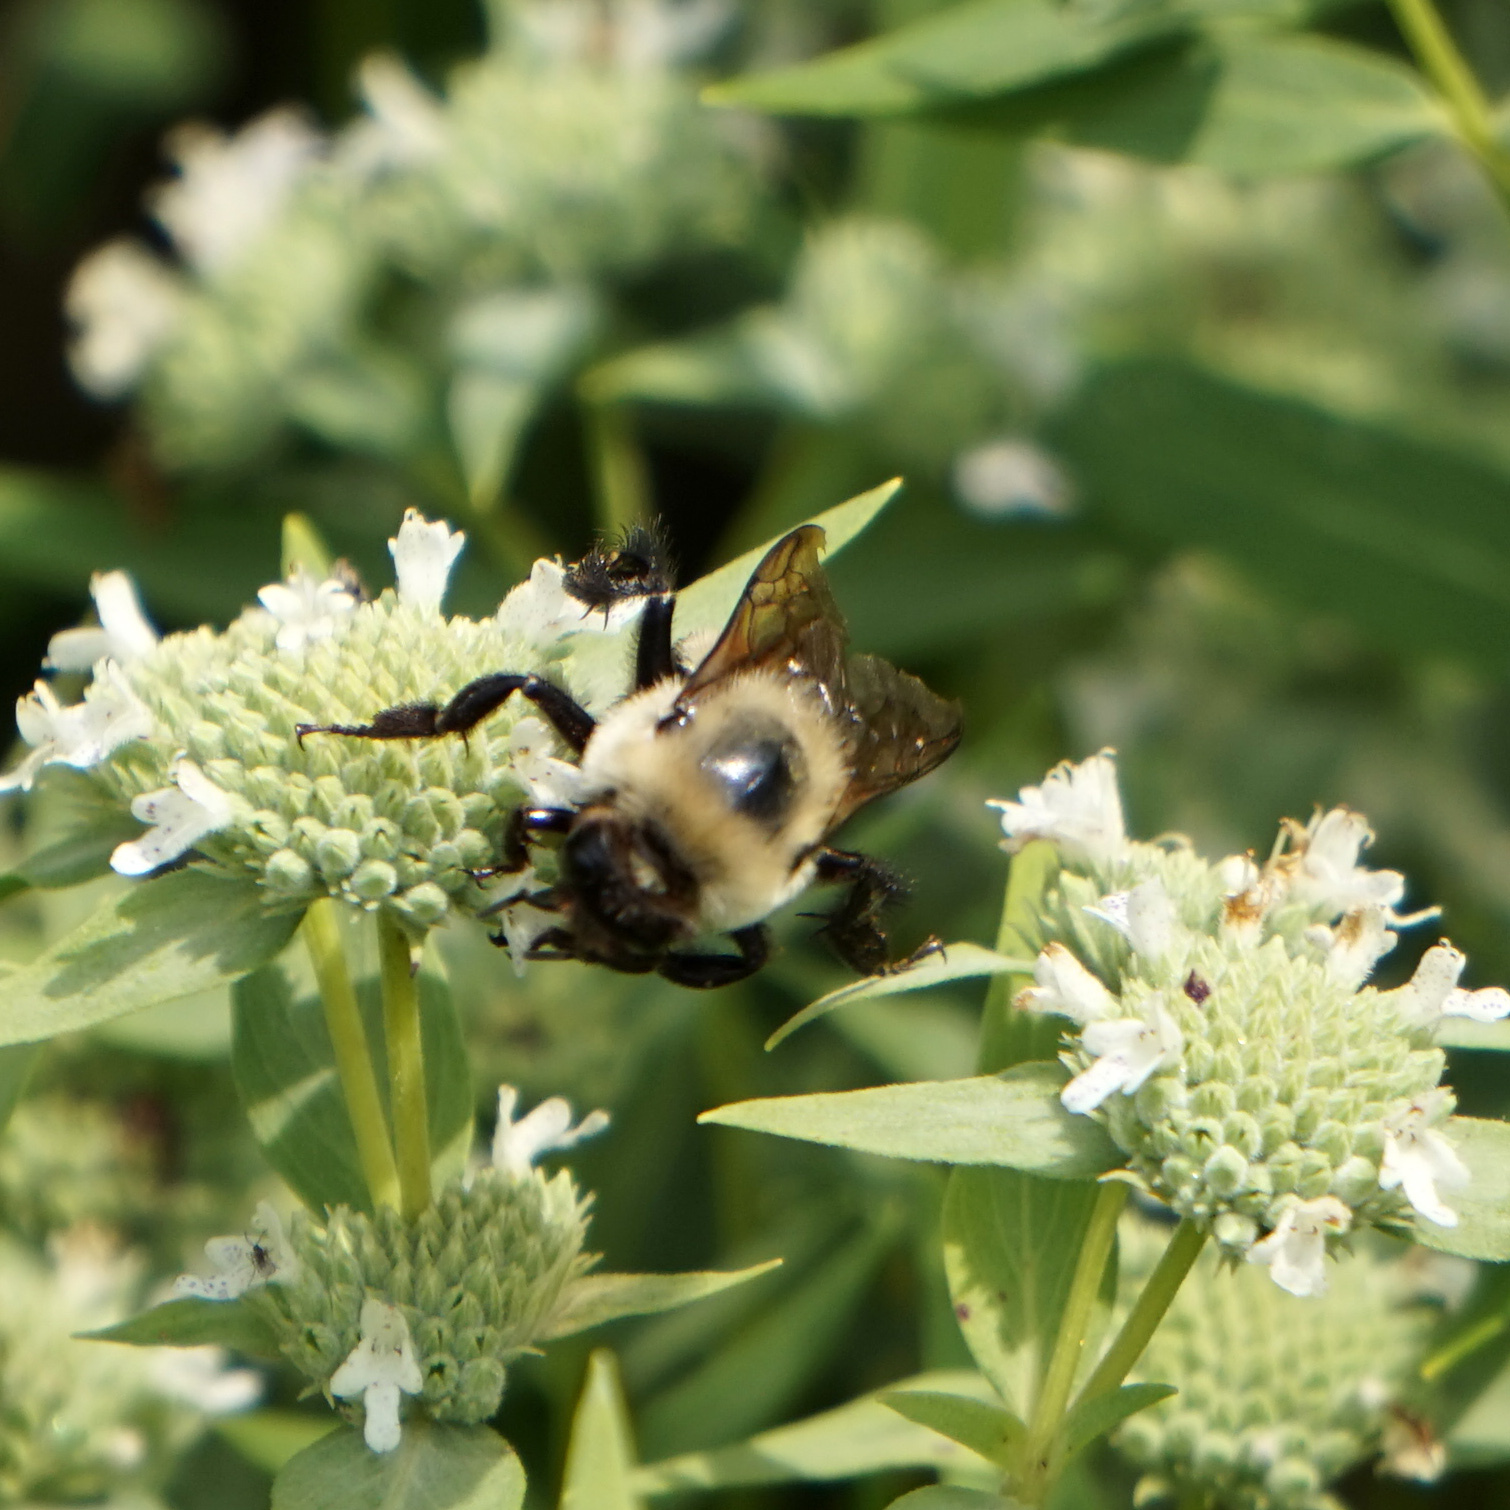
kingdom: Animalia
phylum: Arthropoda
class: Insecta
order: Hymenoptera
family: Apidae
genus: Bombus
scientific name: Bombus griseocollis
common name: Brown-belted bumble bee
